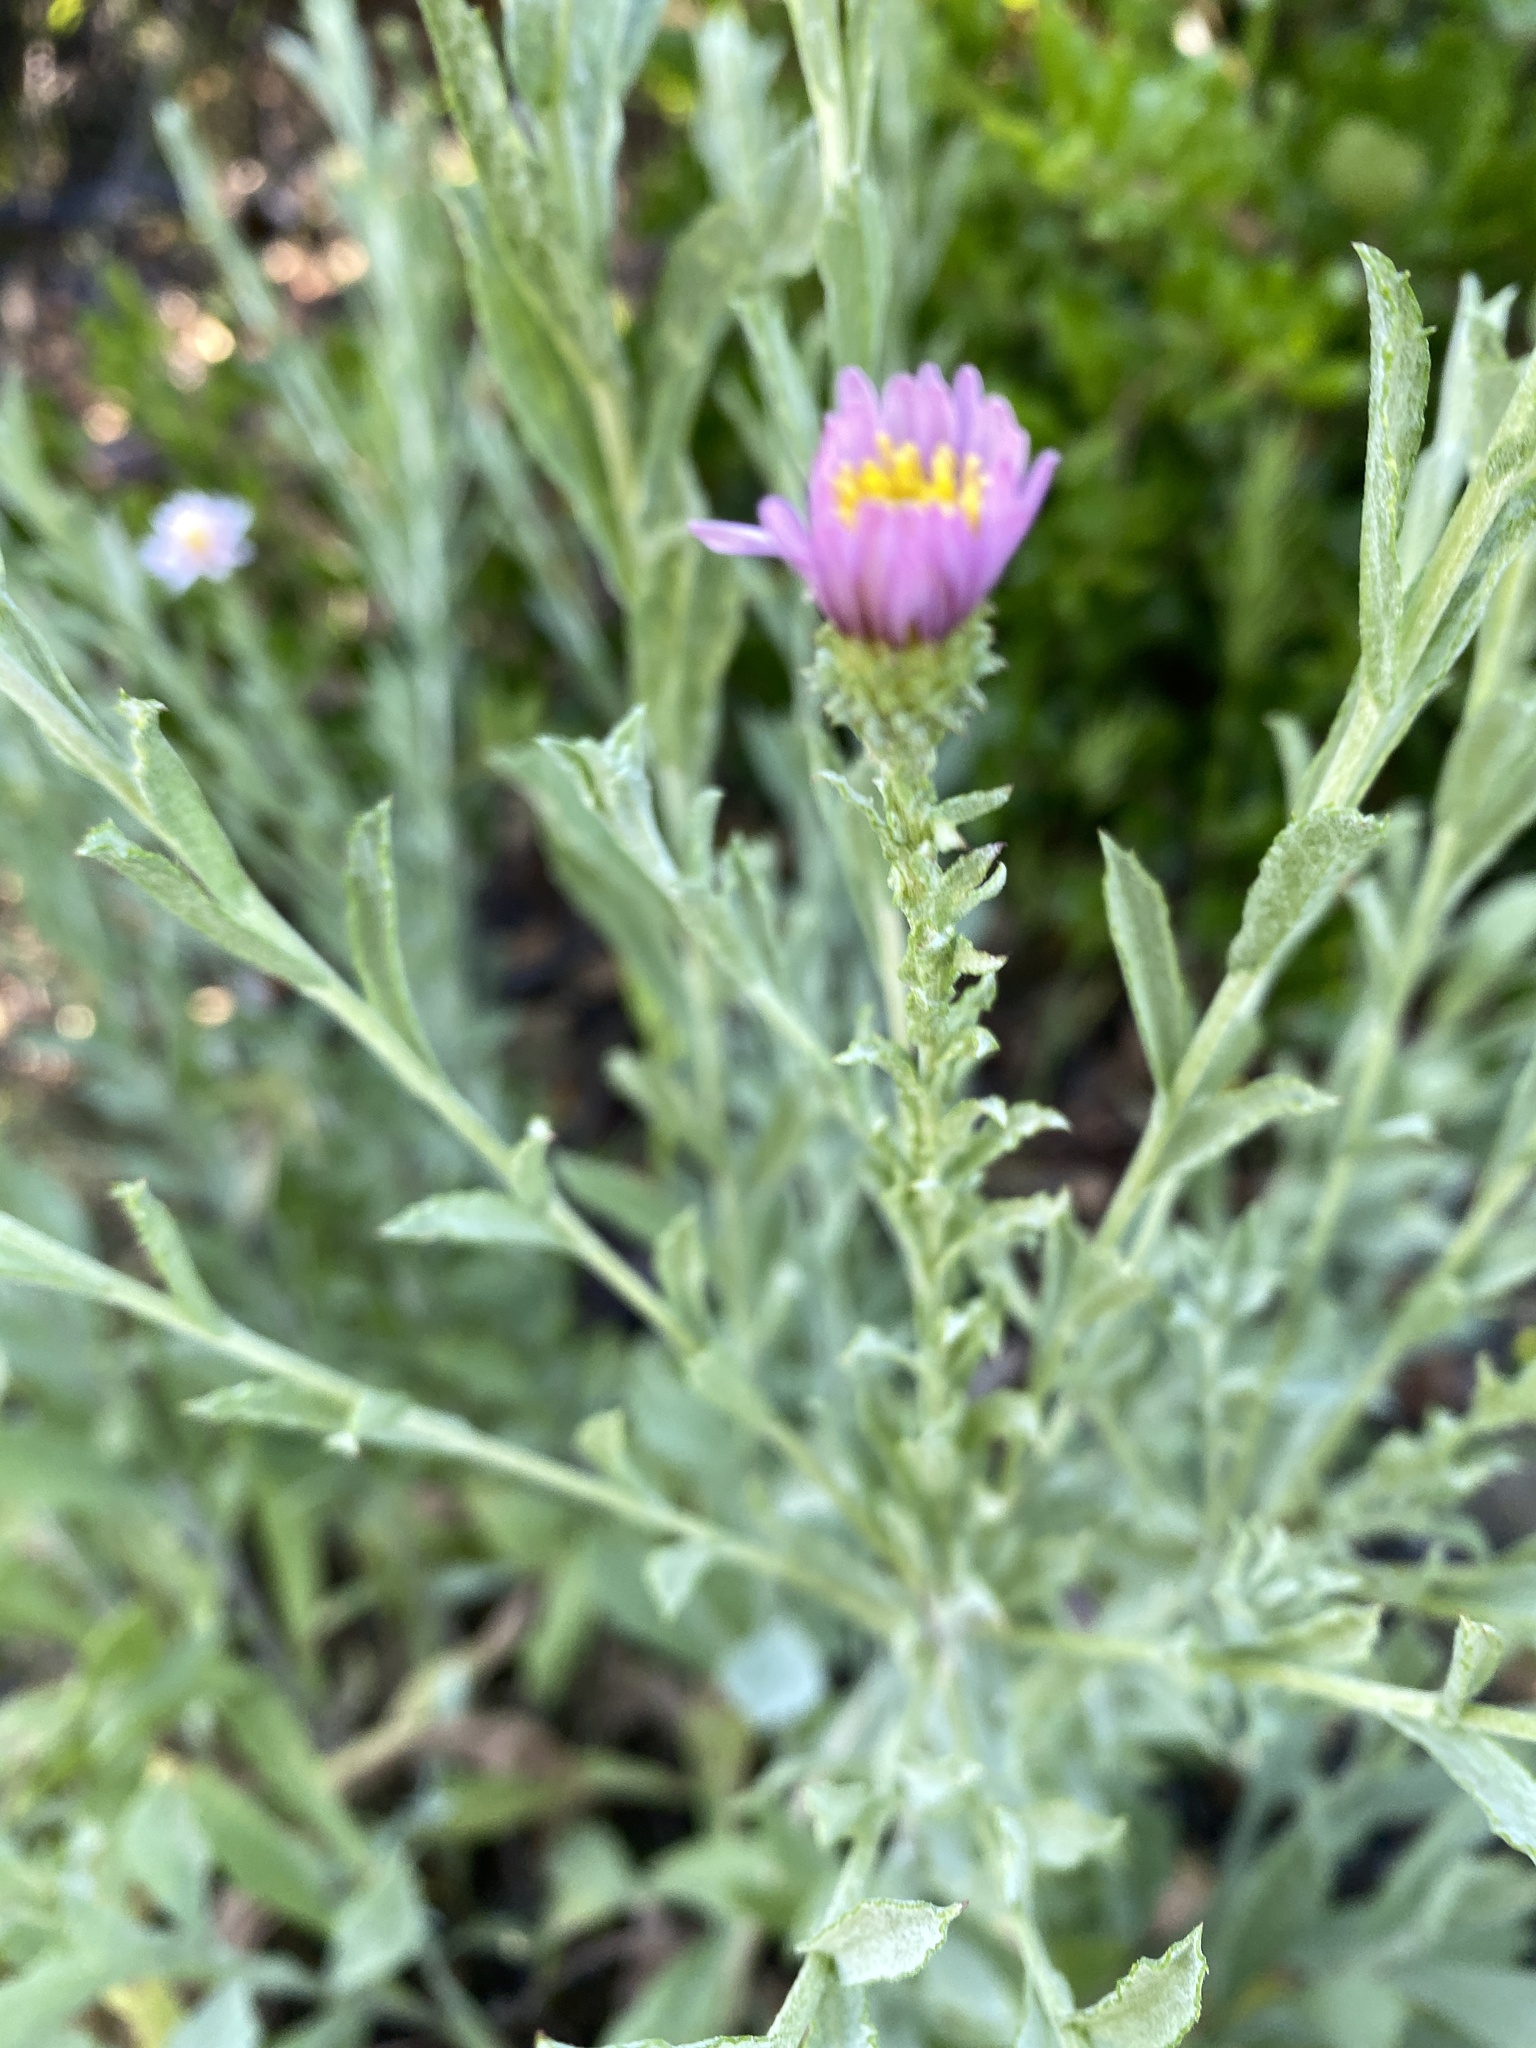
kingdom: Plantae
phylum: Tracheophyta
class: Magnoliopsida
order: Asterales
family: Asteraceae
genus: Corethrogyne
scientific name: Corethrogyne filaginifolia
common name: Sand-aster
